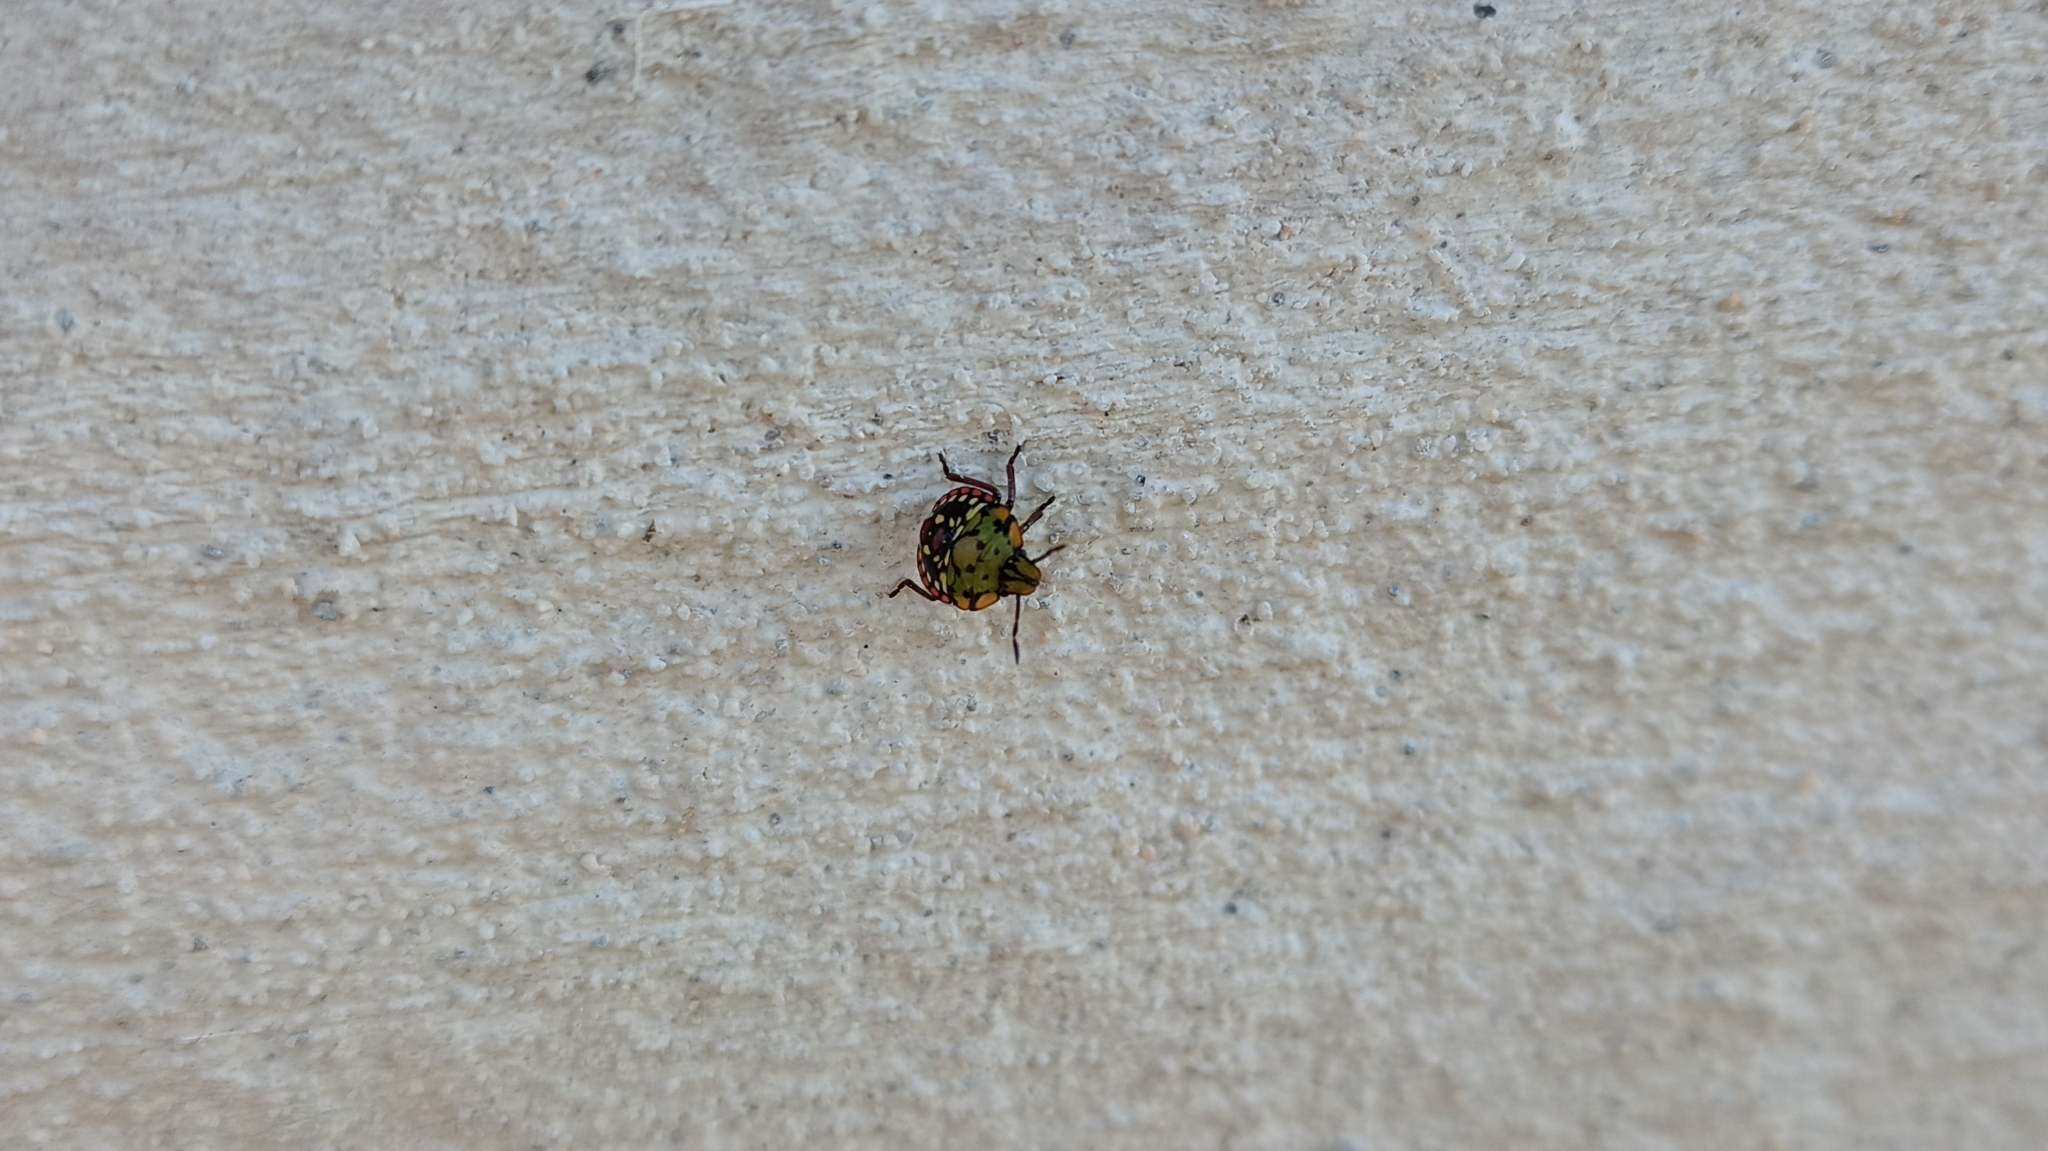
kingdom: Animalia
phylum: Arthropoda
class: Insecta
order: Hemiptera
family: Pentatomidae
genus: Nezara
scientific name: Nezara viridula
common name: Southern green stink bug
